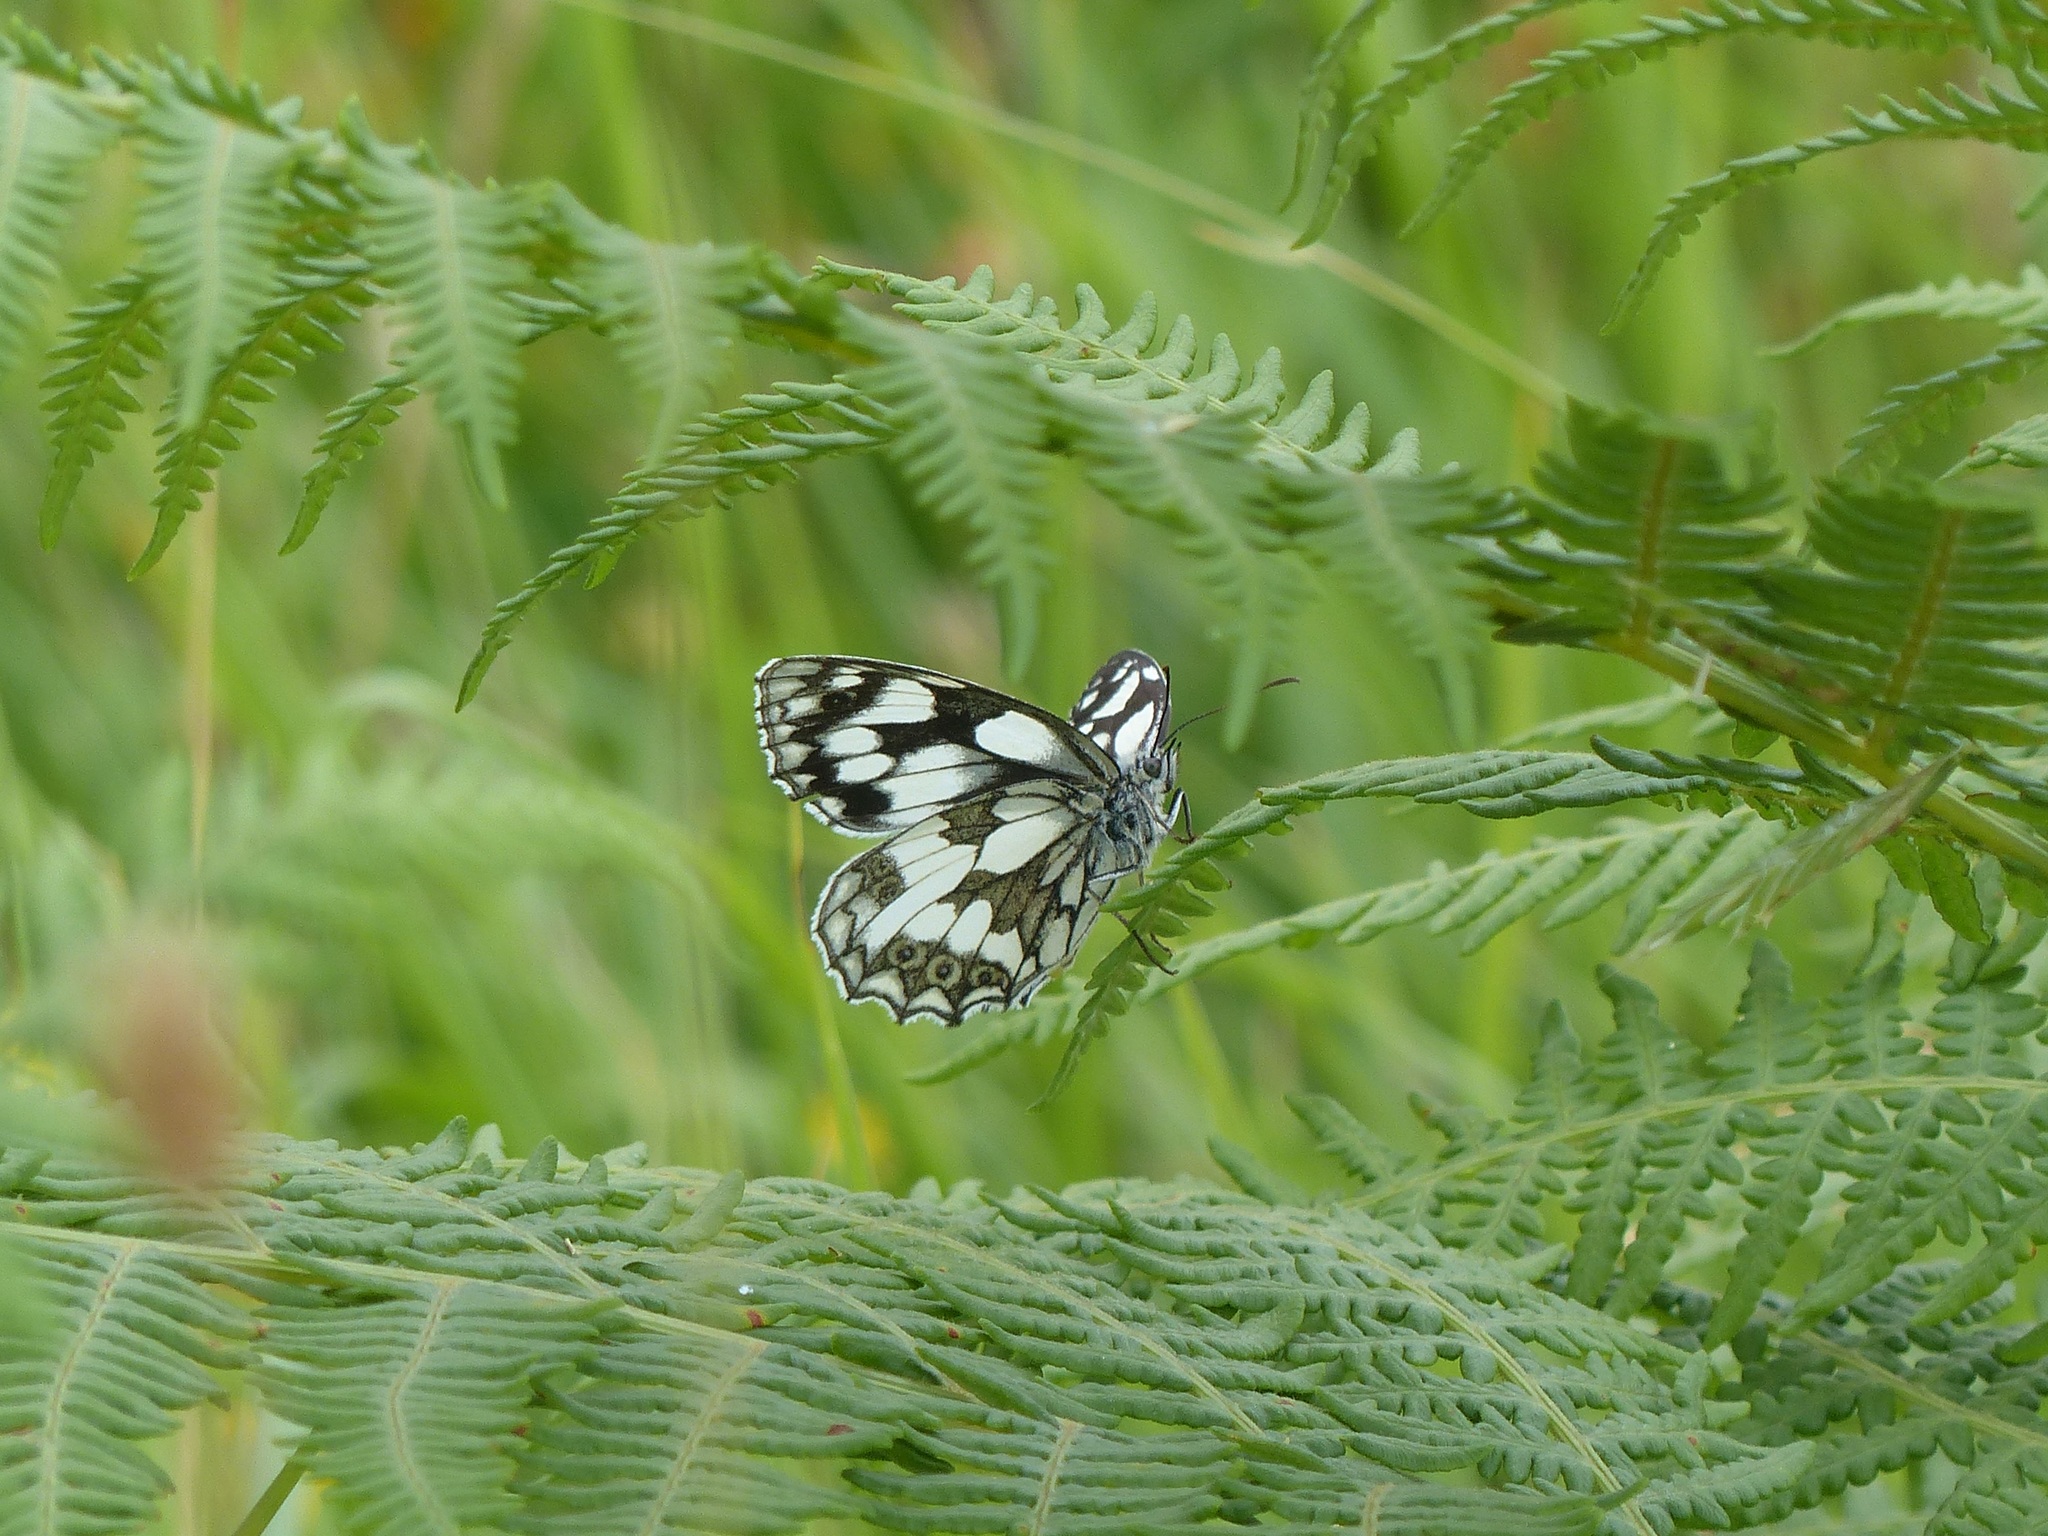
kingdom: Animalia
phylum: Arthropoda
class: Insecta
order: Lepidoptera
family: Nymphalidae
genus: Melanargia
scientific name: Melanargia galathea
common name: Marbled white
